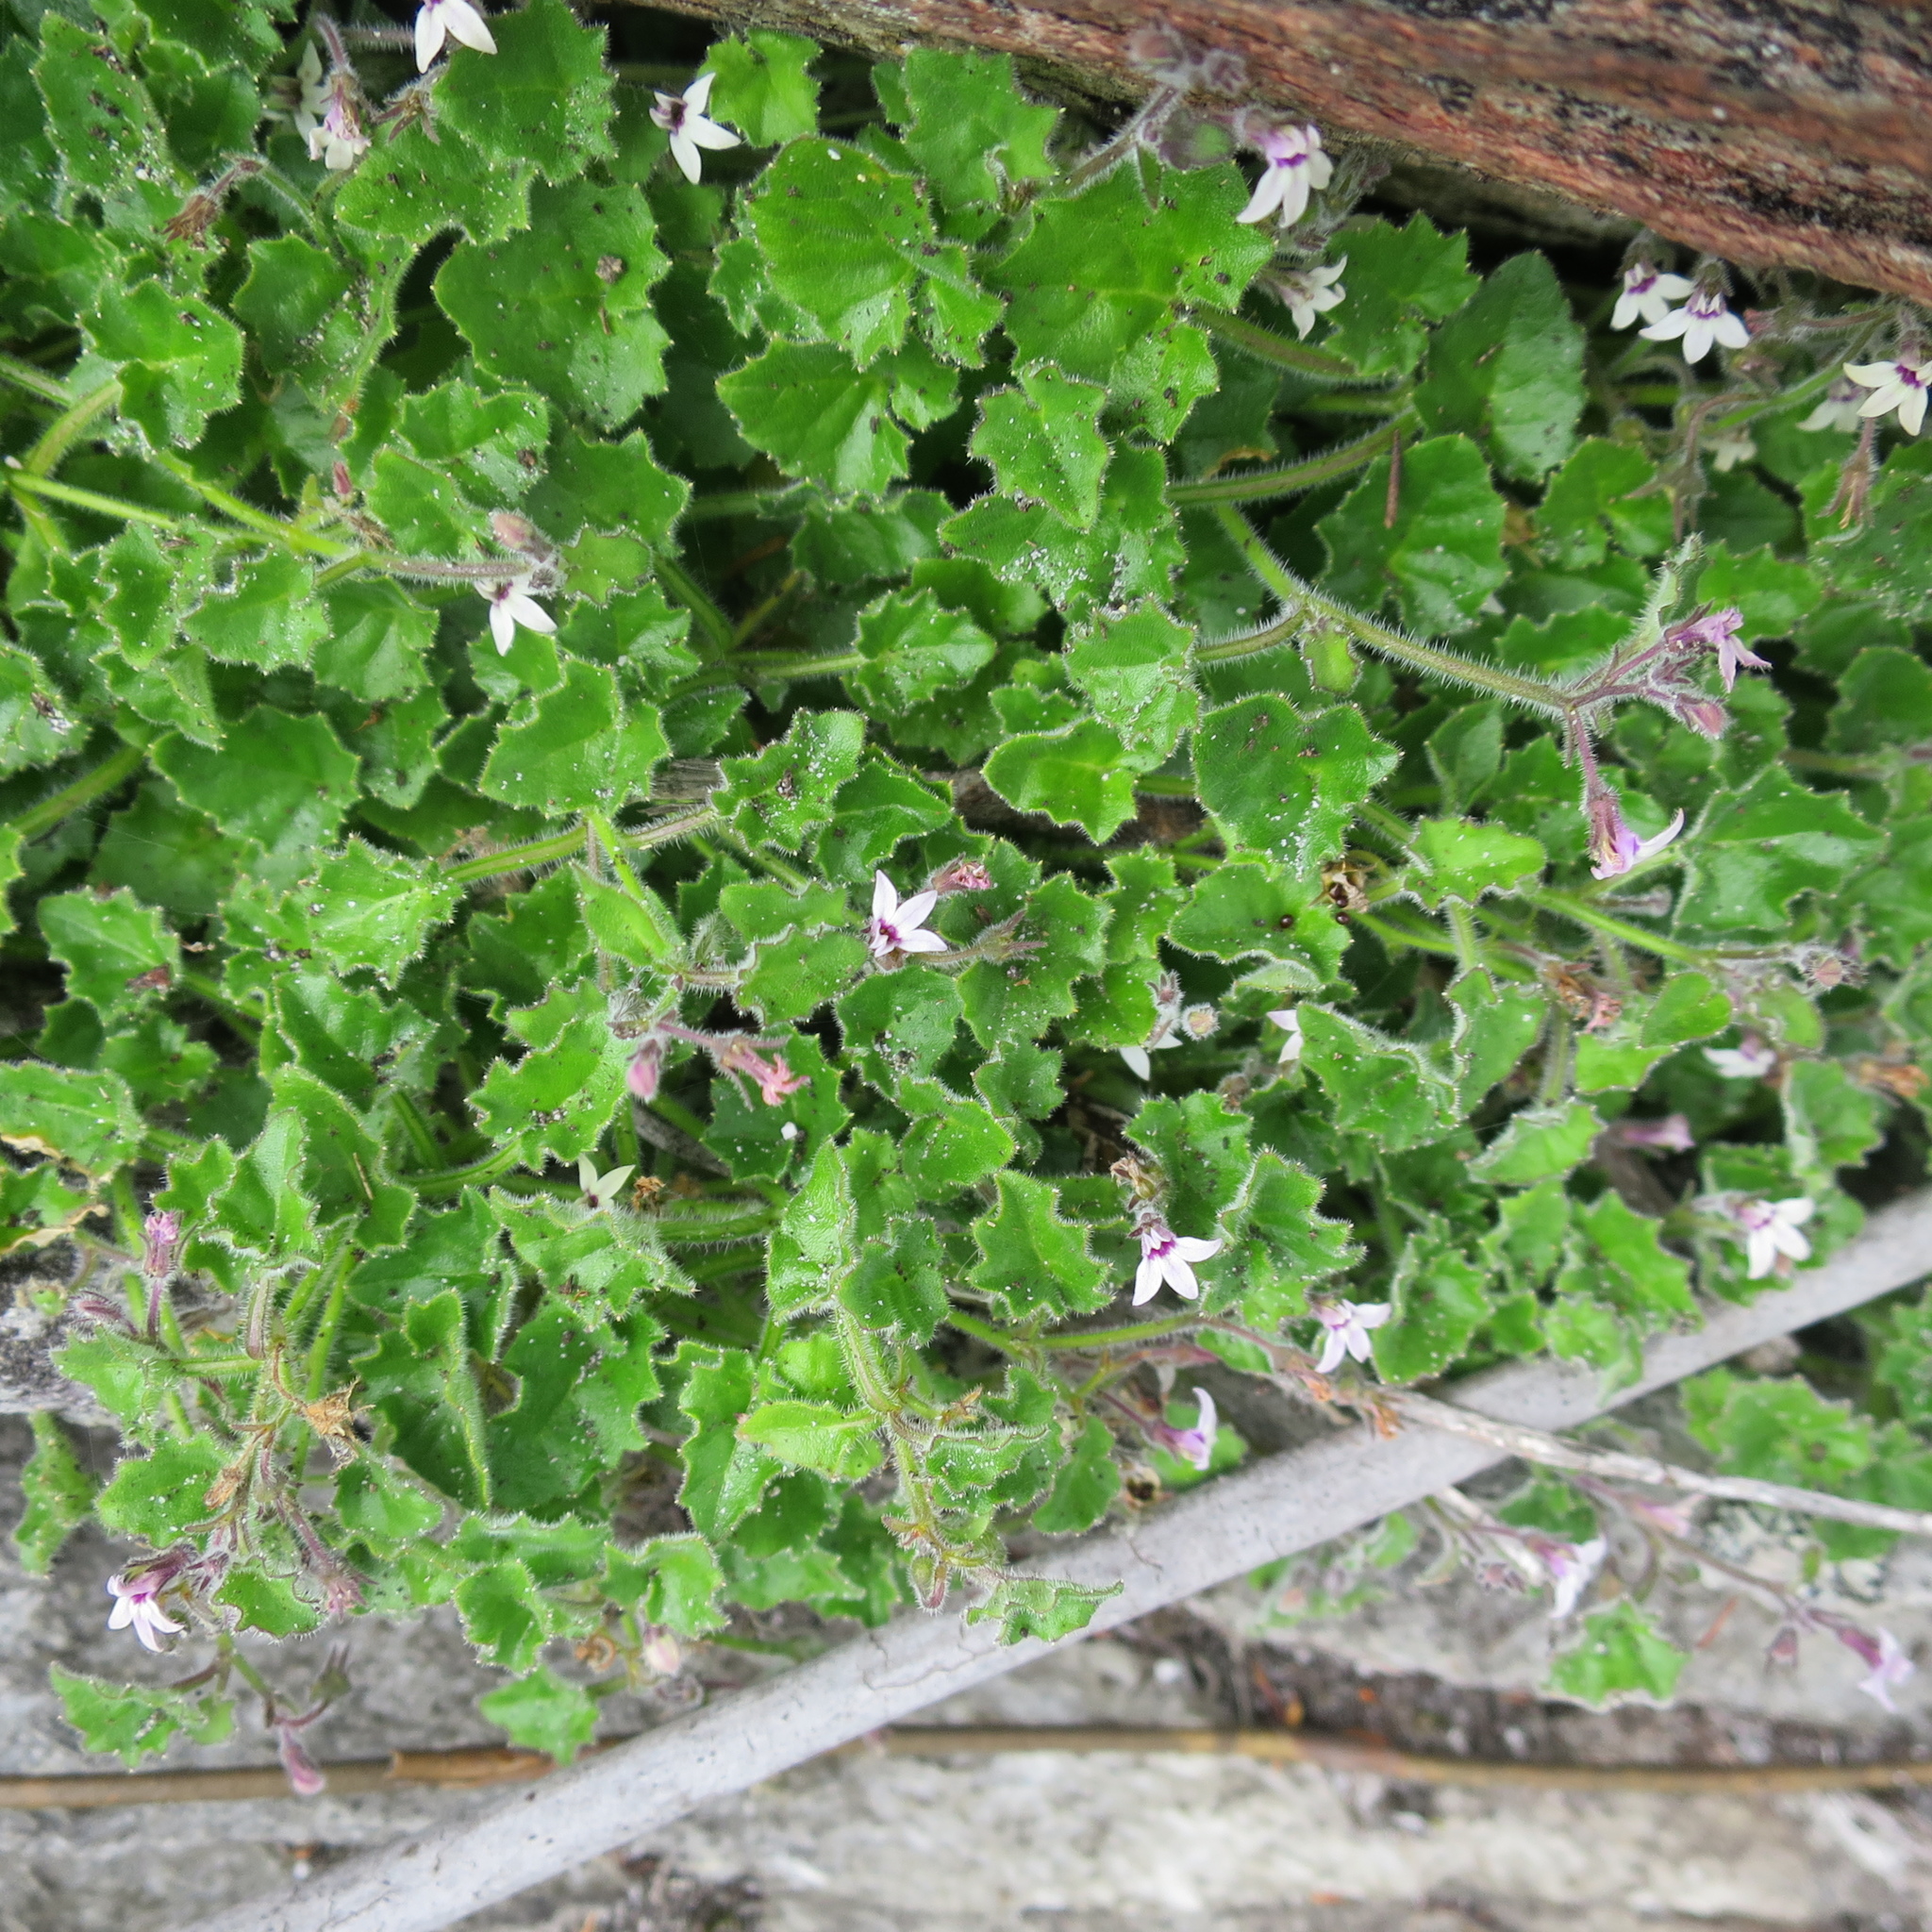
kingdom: Plantae
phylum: Tracheophyta
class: Magnoliopsida
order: Asterales
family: Campanulaceae
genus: Lobelia
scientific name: Lobelia ardisiandroides
